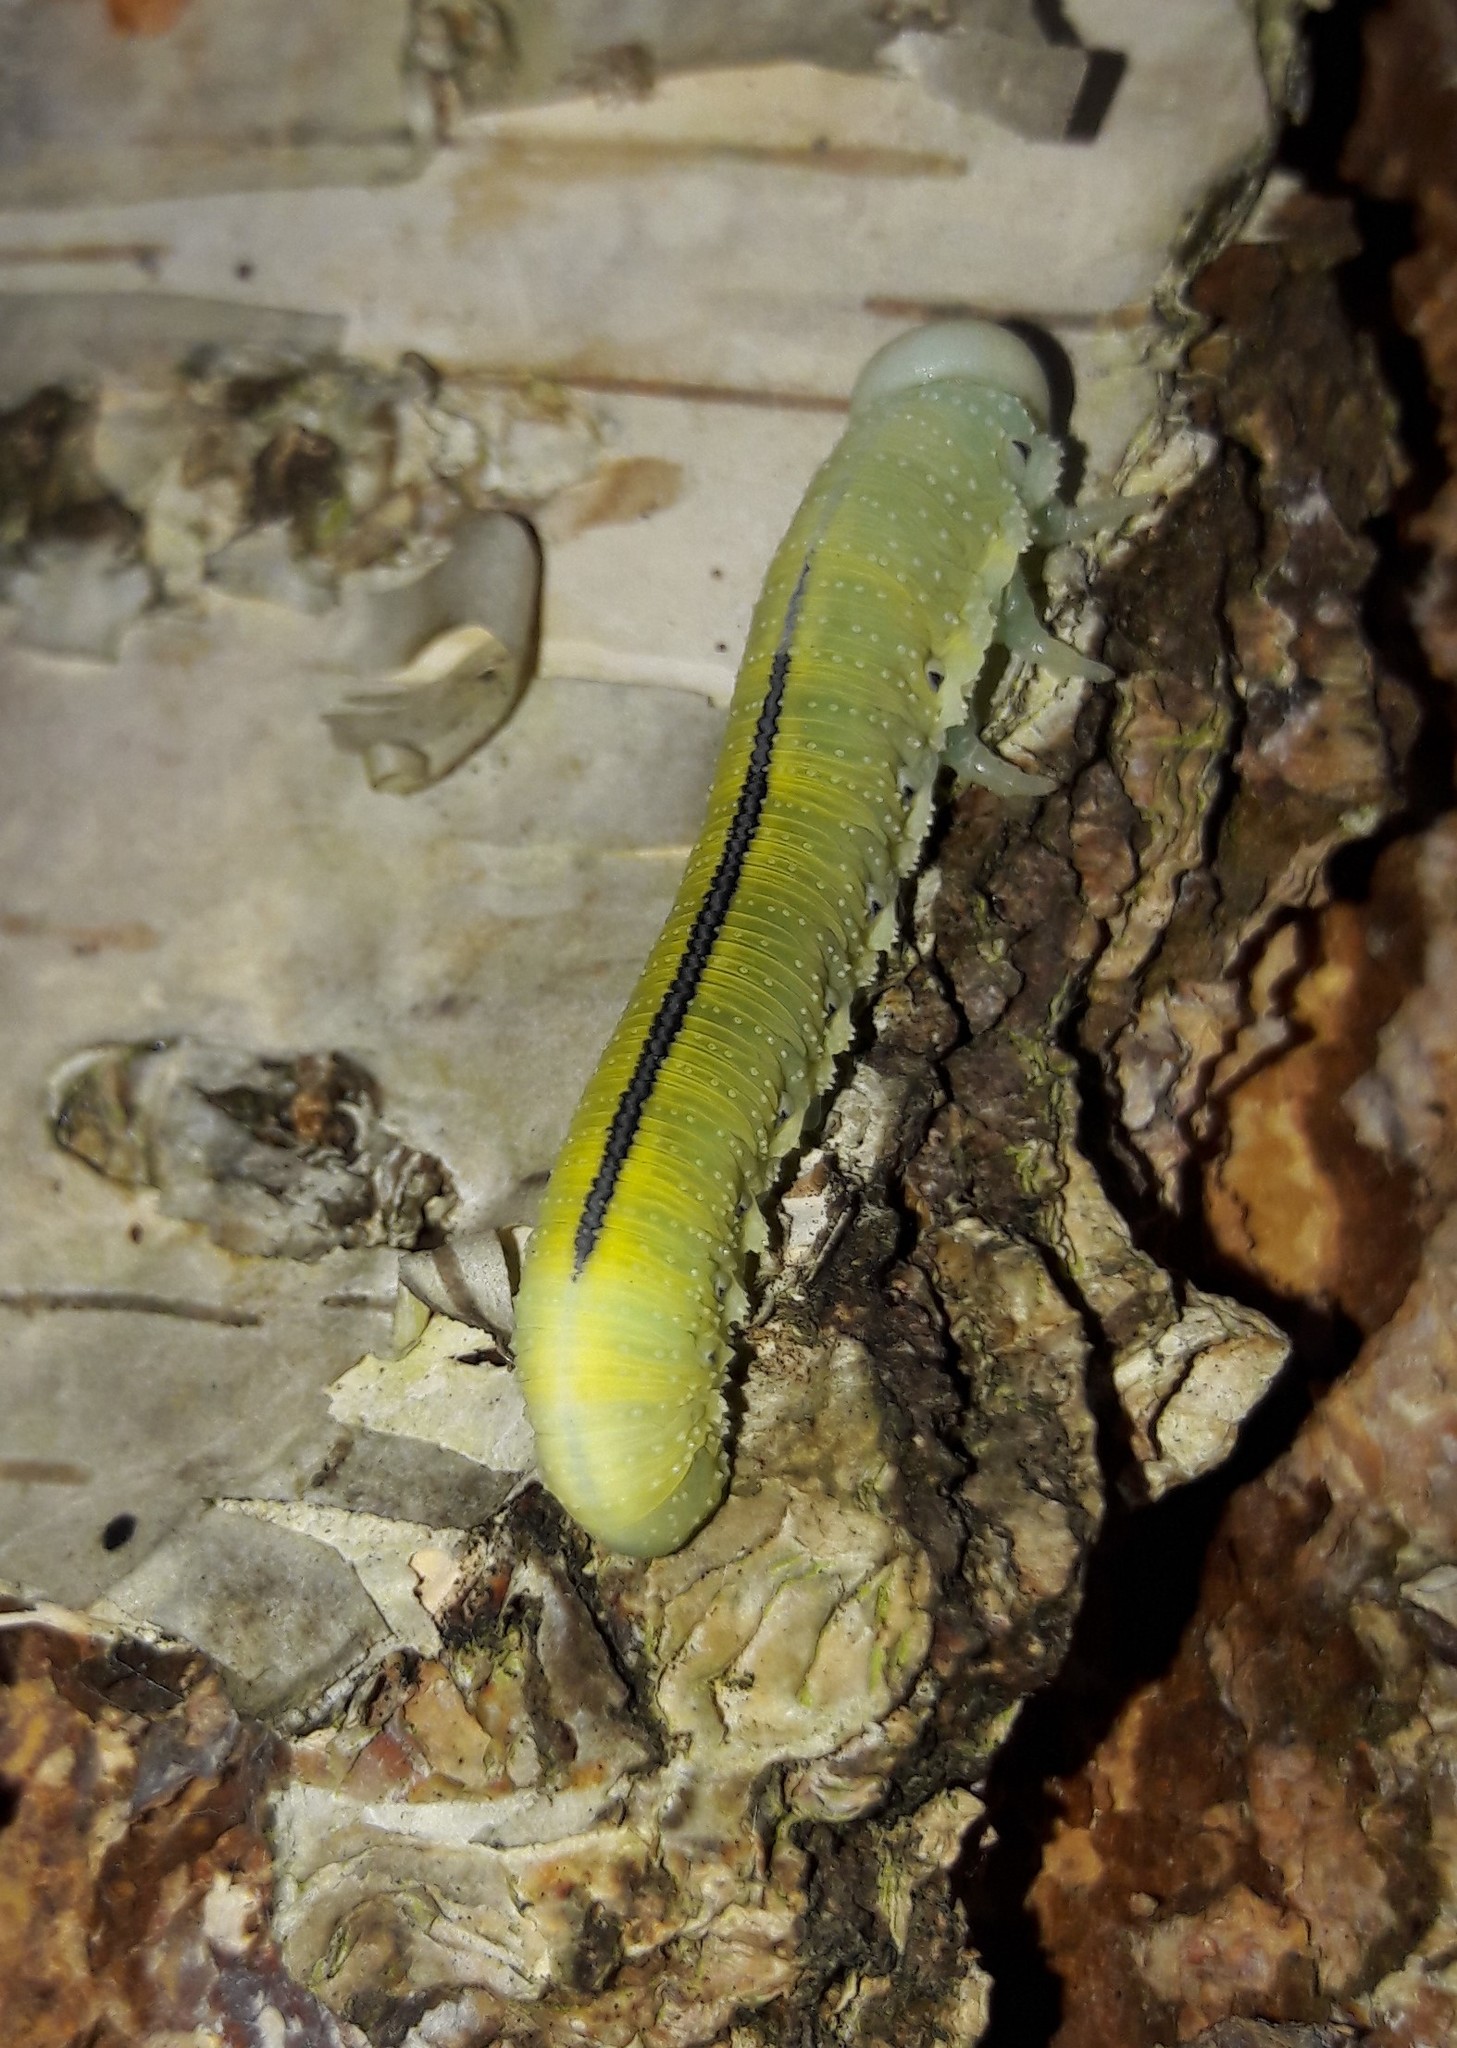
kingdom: Animalia
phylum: Arthropoda
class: Insecta
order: Hymenoptera
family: Cimbicidae
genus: Cimbex
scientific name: Cimbex femoratus
